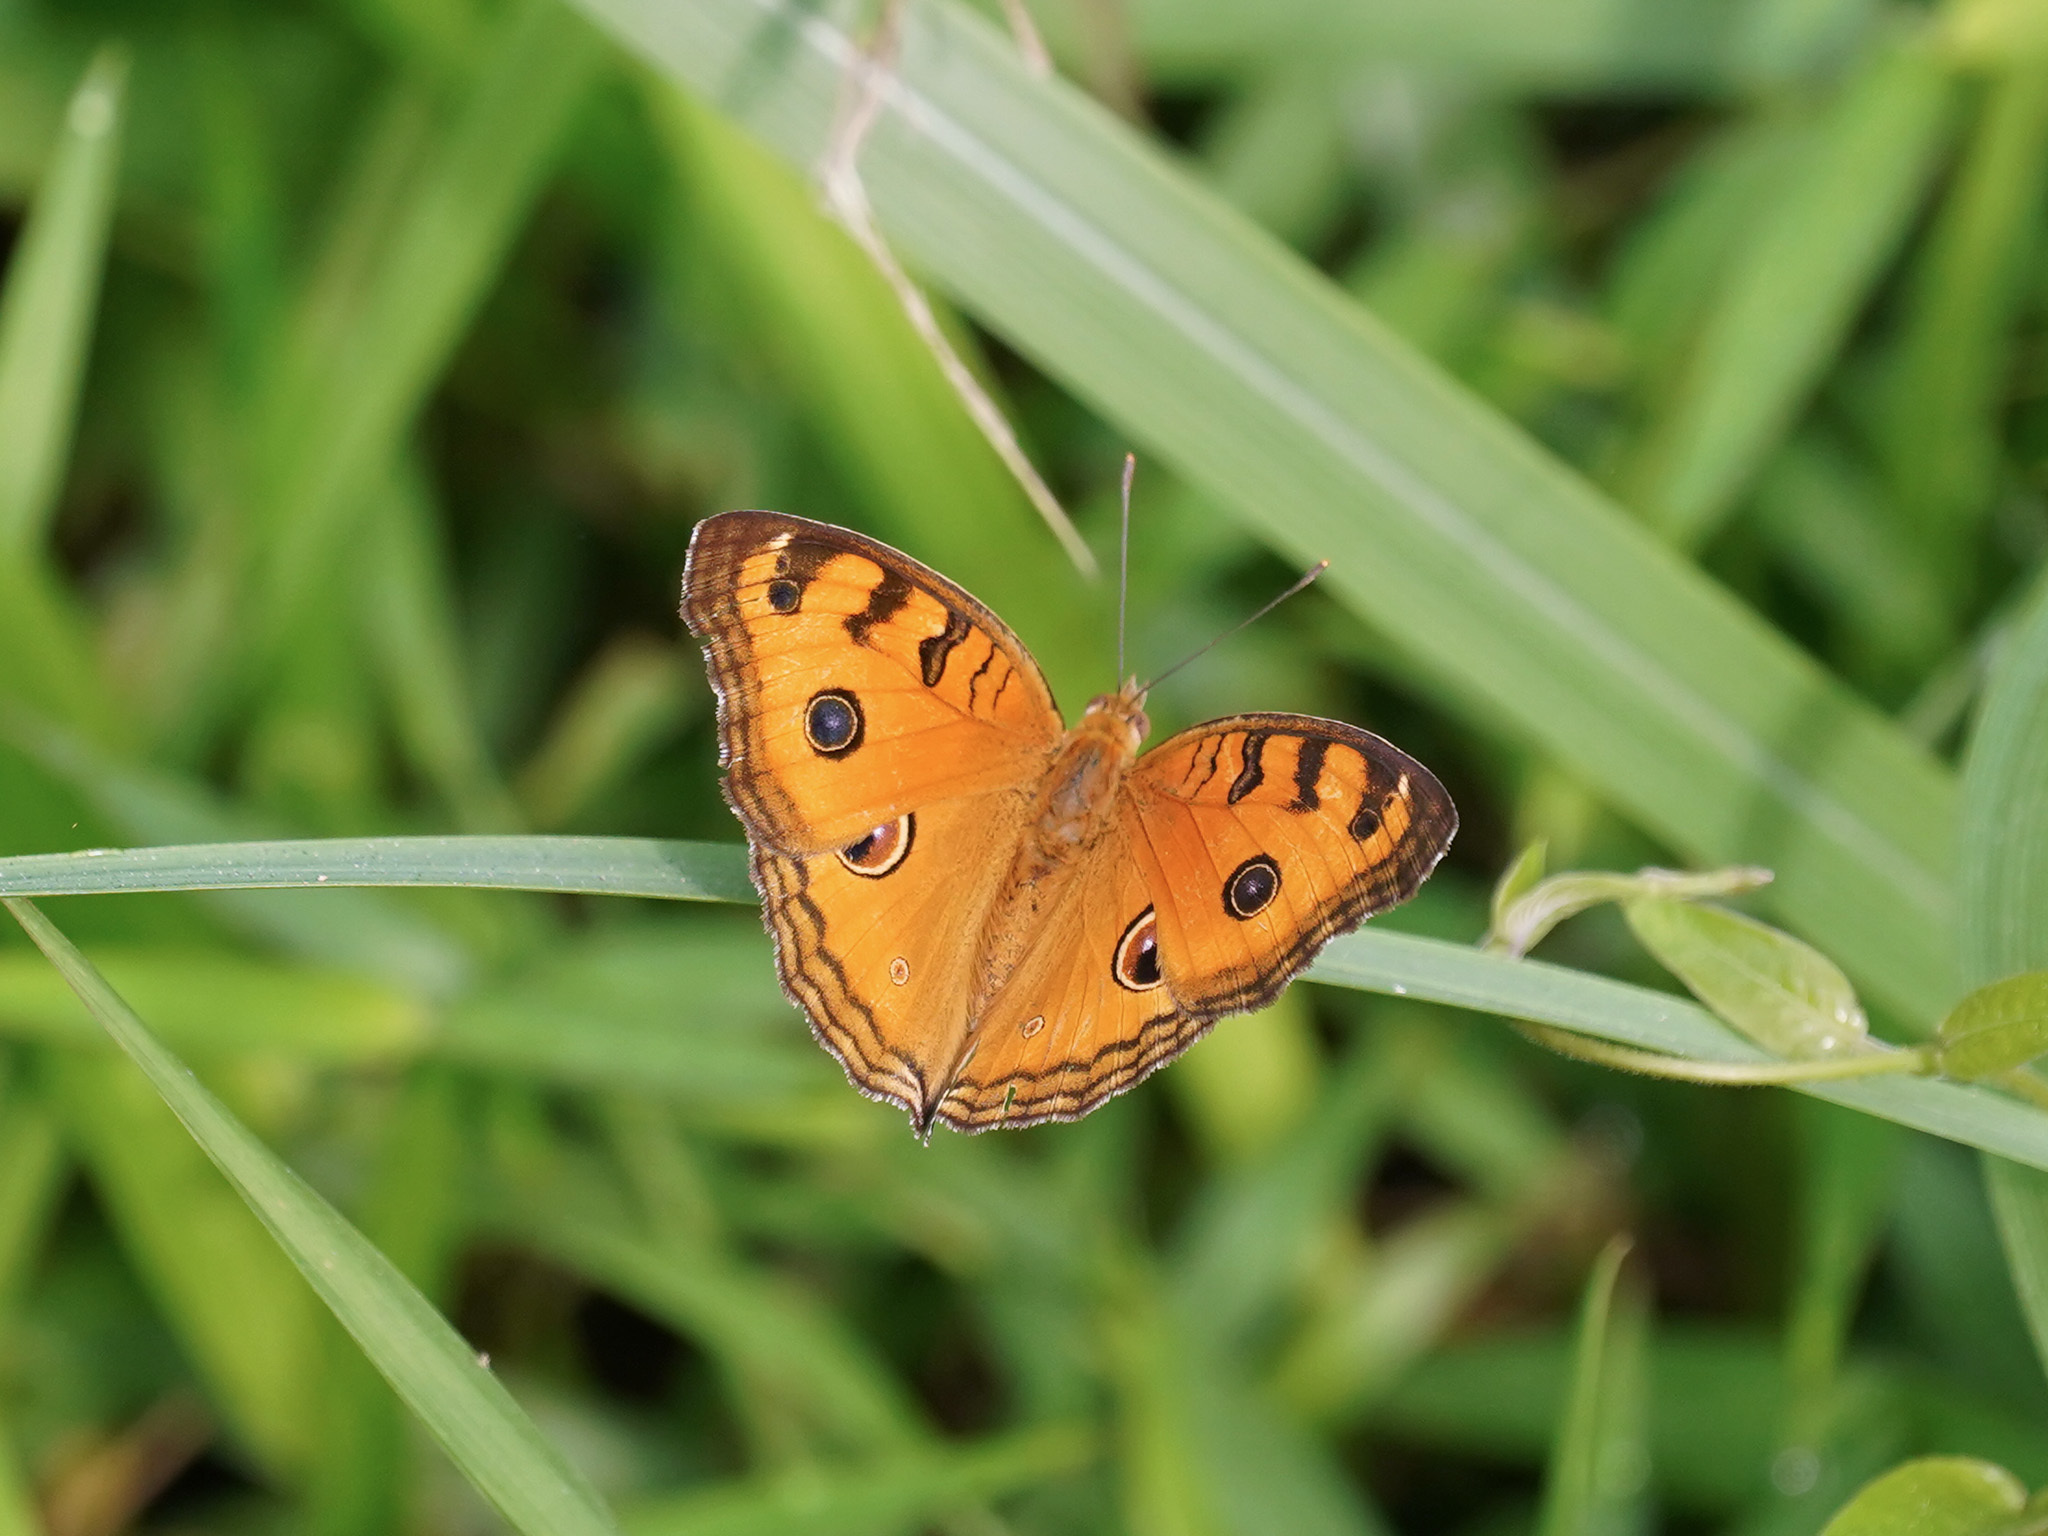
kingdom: Animalia
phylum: Arthropoda
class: Insecta
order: Lepidoptera
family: Nymphalidae
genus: Junonia
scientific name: Junonia almana
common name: Peacock pansy
